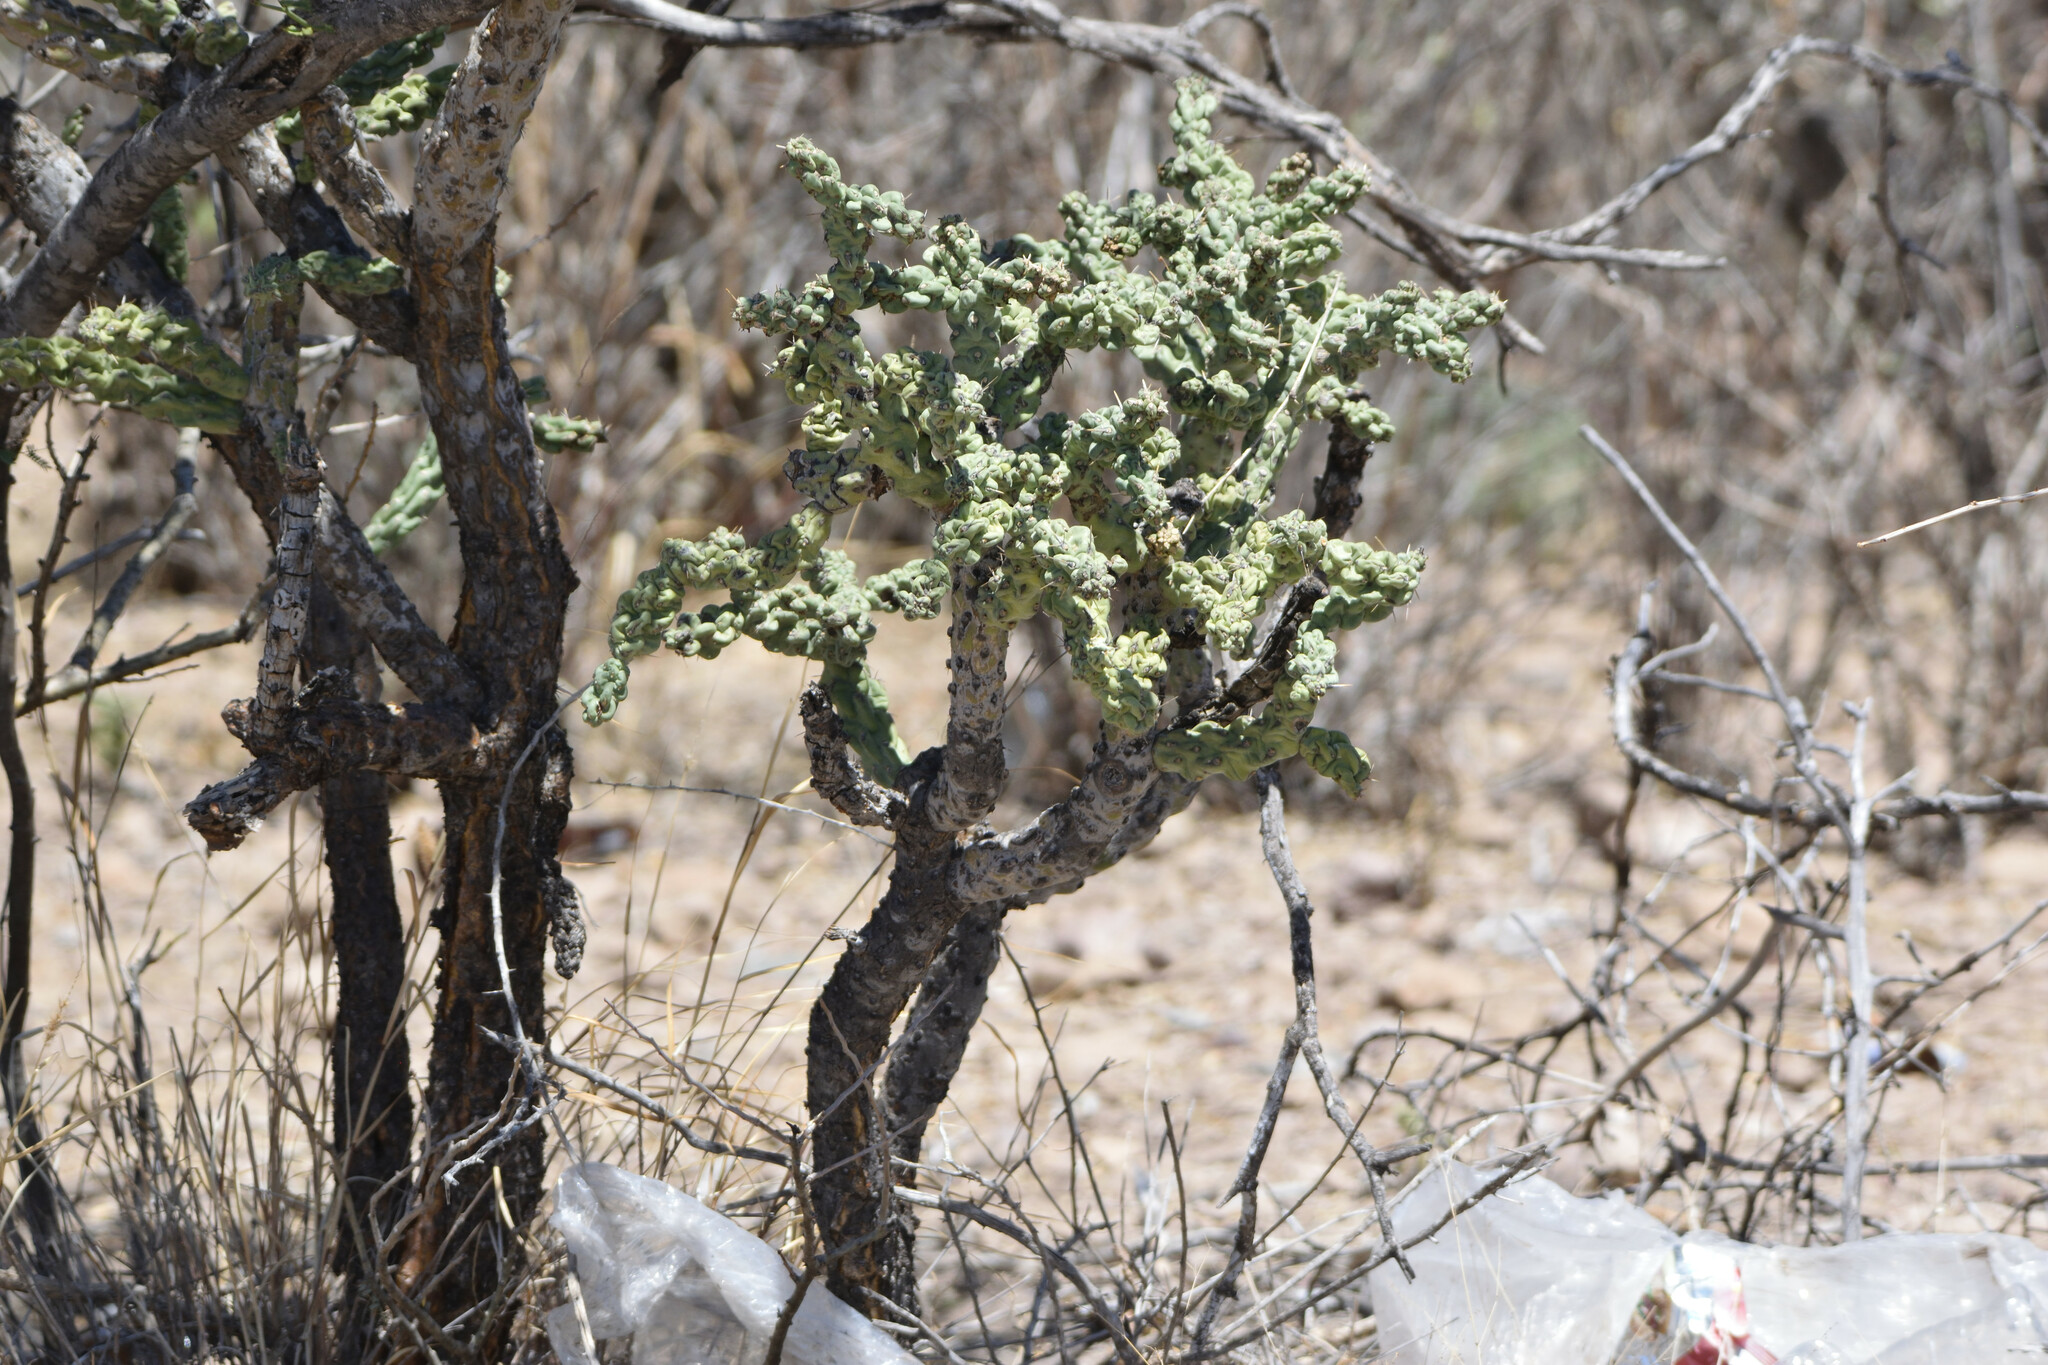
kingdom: Plantae
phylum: Tracheophyta
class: Magnoliopsida
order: Caryophyllales
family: Cactaceae
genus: Cylindropuntia
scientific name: Cylindropuntia cholla
